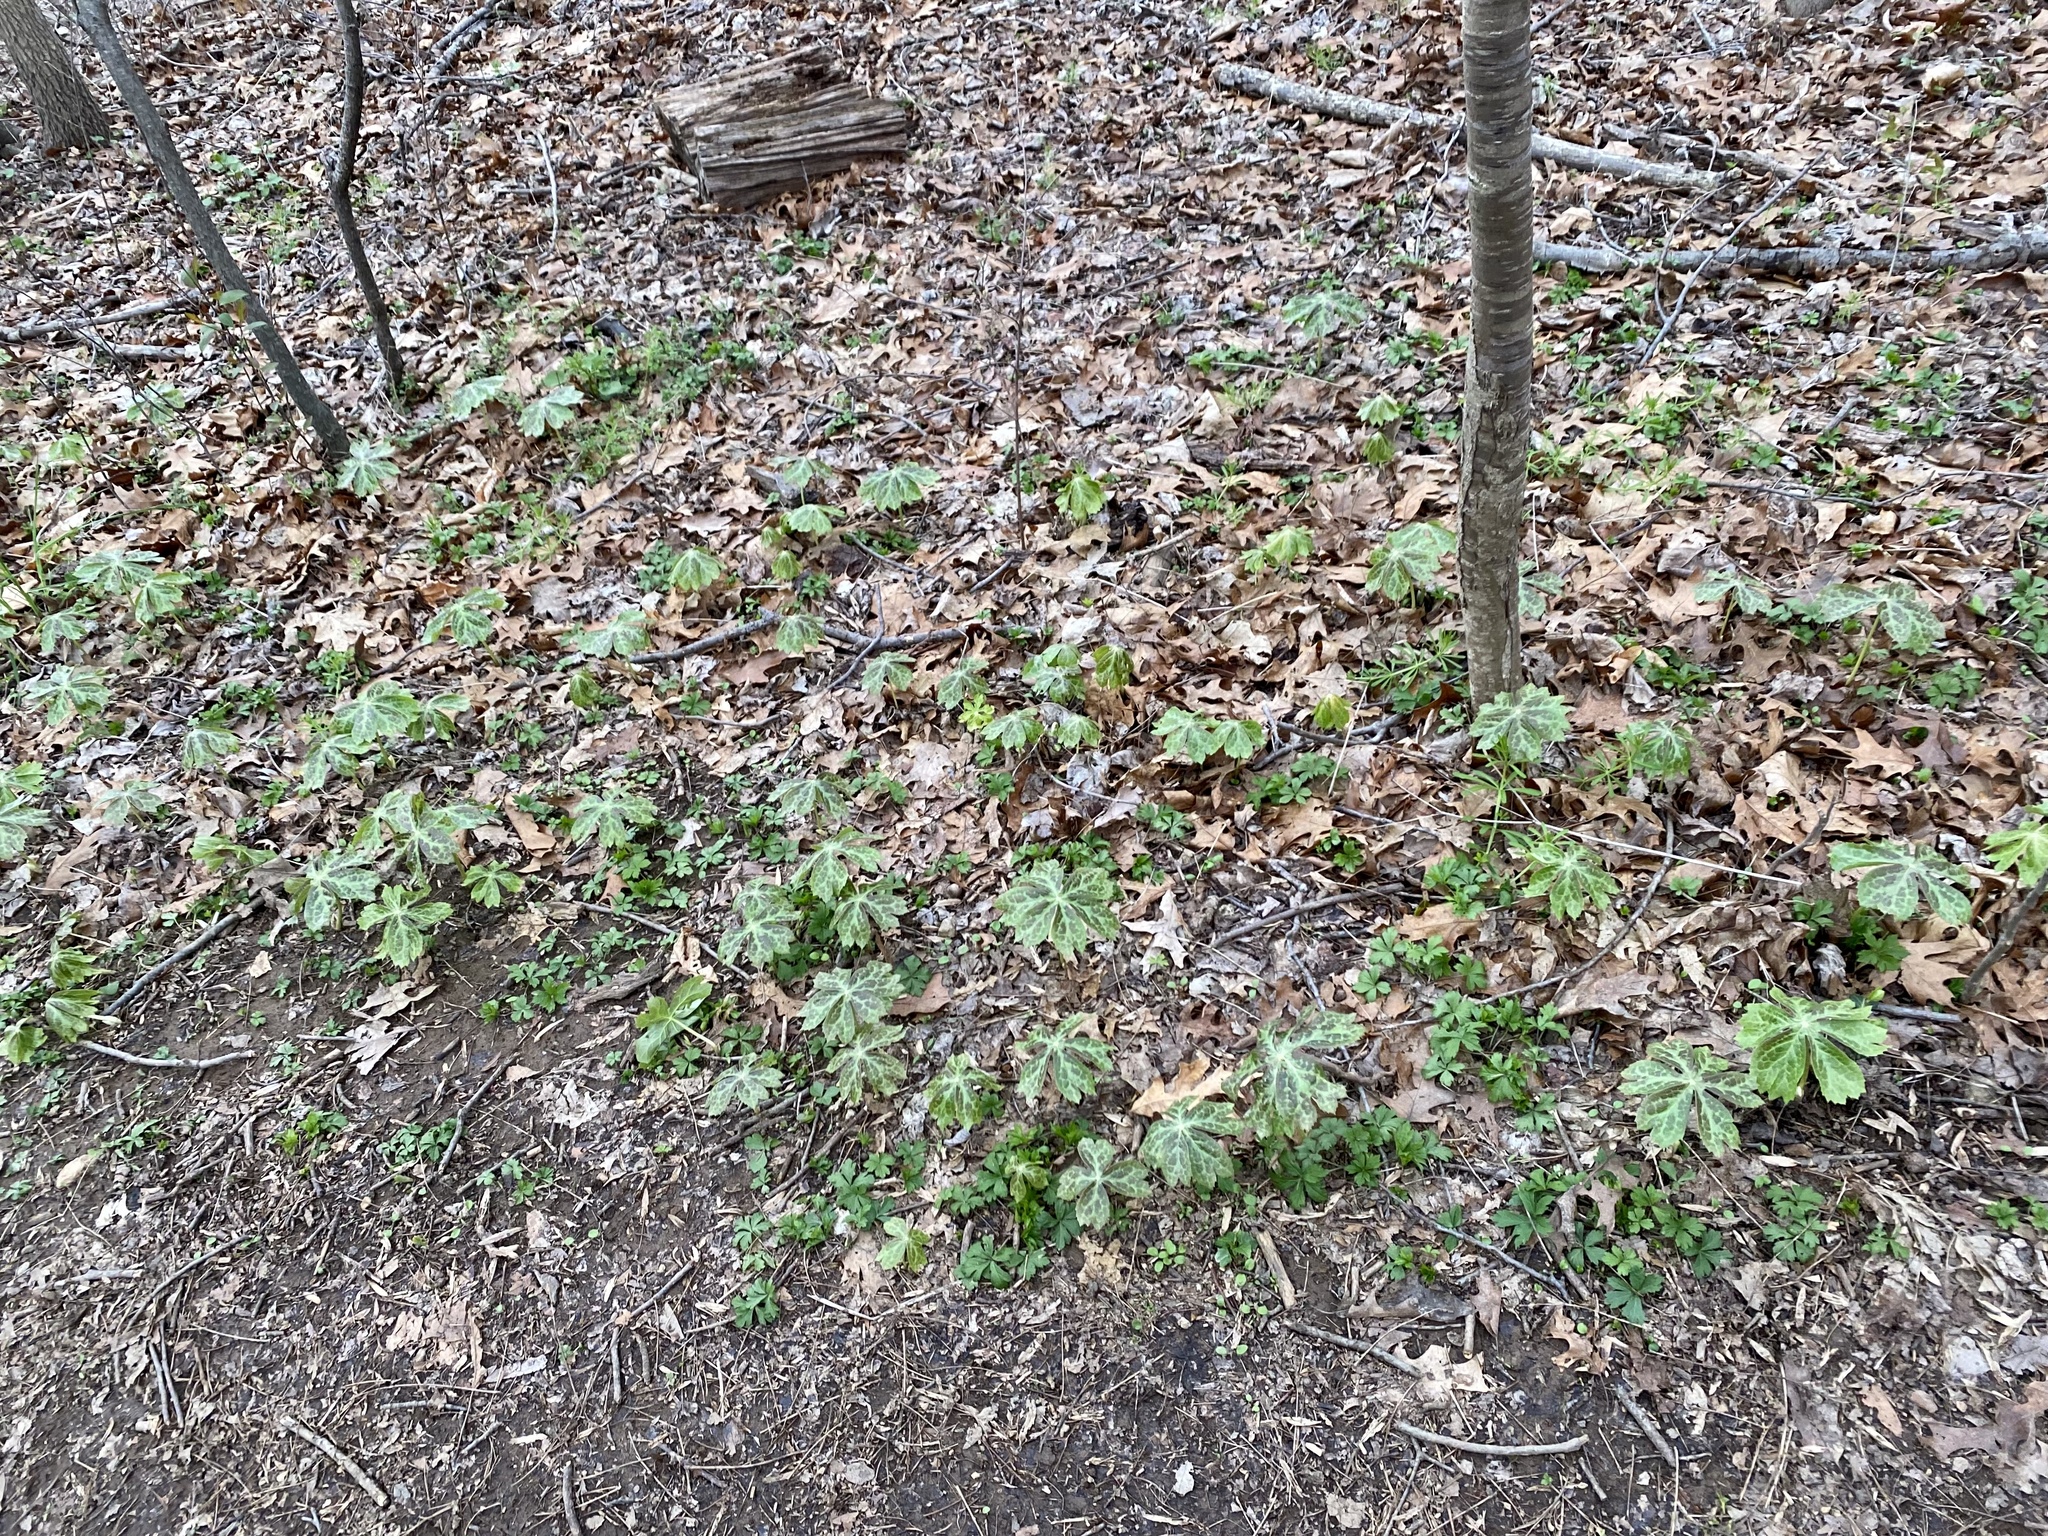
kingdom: Plantae
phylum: Tracheophyta
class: Magnoliopsida
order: Ranunculales
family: Berberidaceae
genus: Podophyllum
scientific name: Podophyllum peltatum
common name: Wild mandrake
